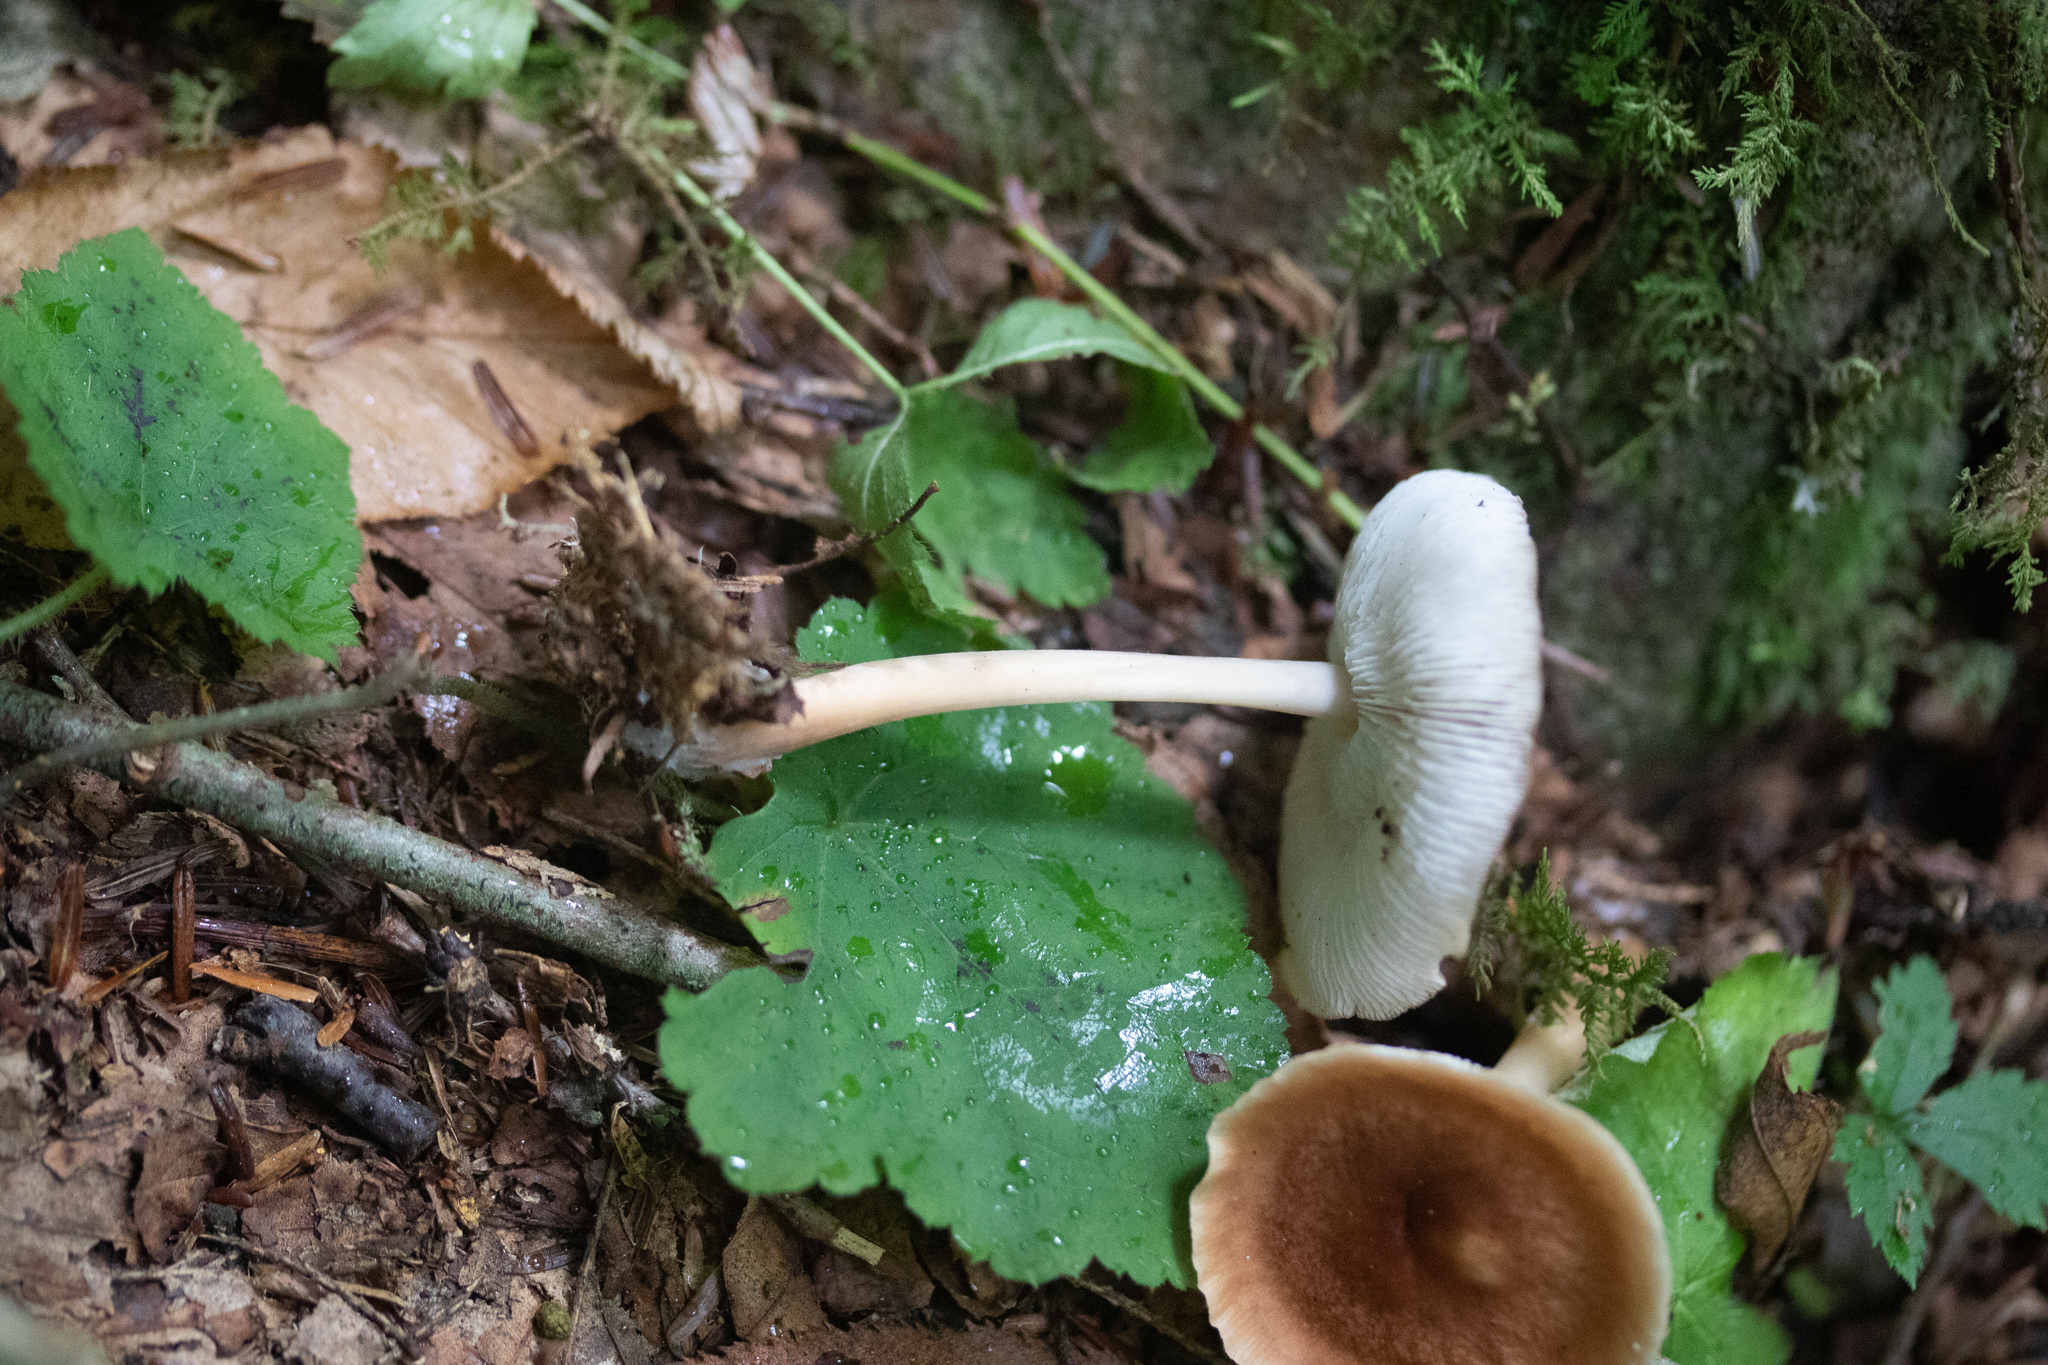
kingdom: Fungi
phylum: Basidiomycota
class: Agaricomycetes
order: Agaricales
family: Omphalotaceae
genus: Gymnopus
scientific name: Gymnopus dryophilus
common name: Penny top
